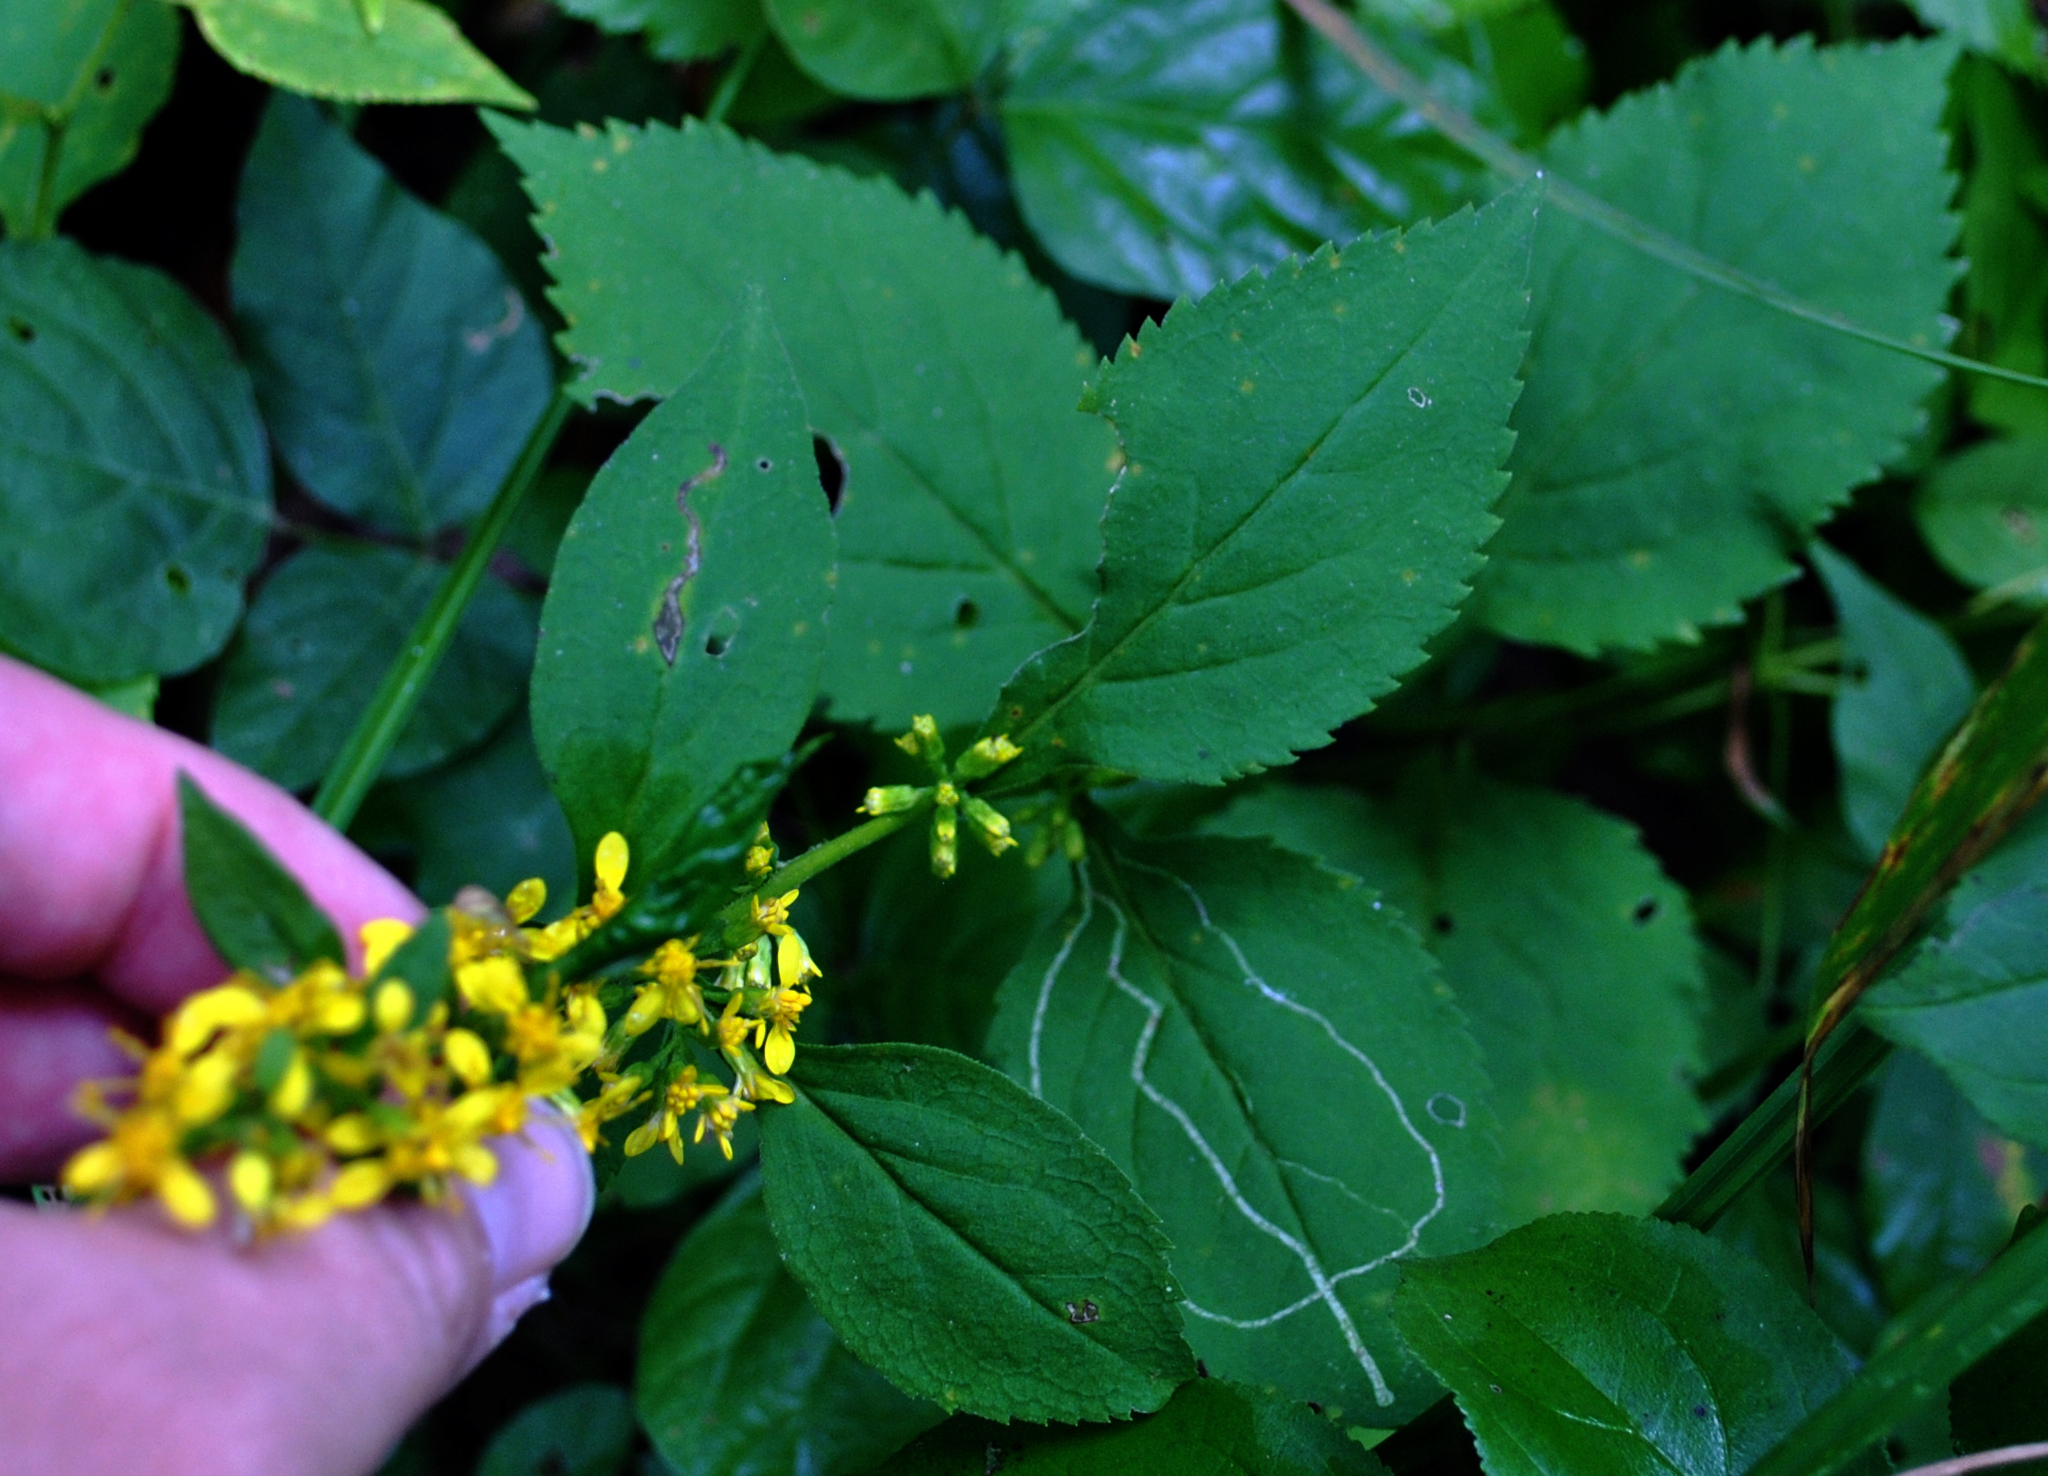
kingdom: Plantae
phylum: Tracheophyta
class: Magnoliopsida
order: Asterales
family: Asteraceae
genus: Solidago
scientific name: Solidago flexicaulis
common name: Zig-zag goldenrod
